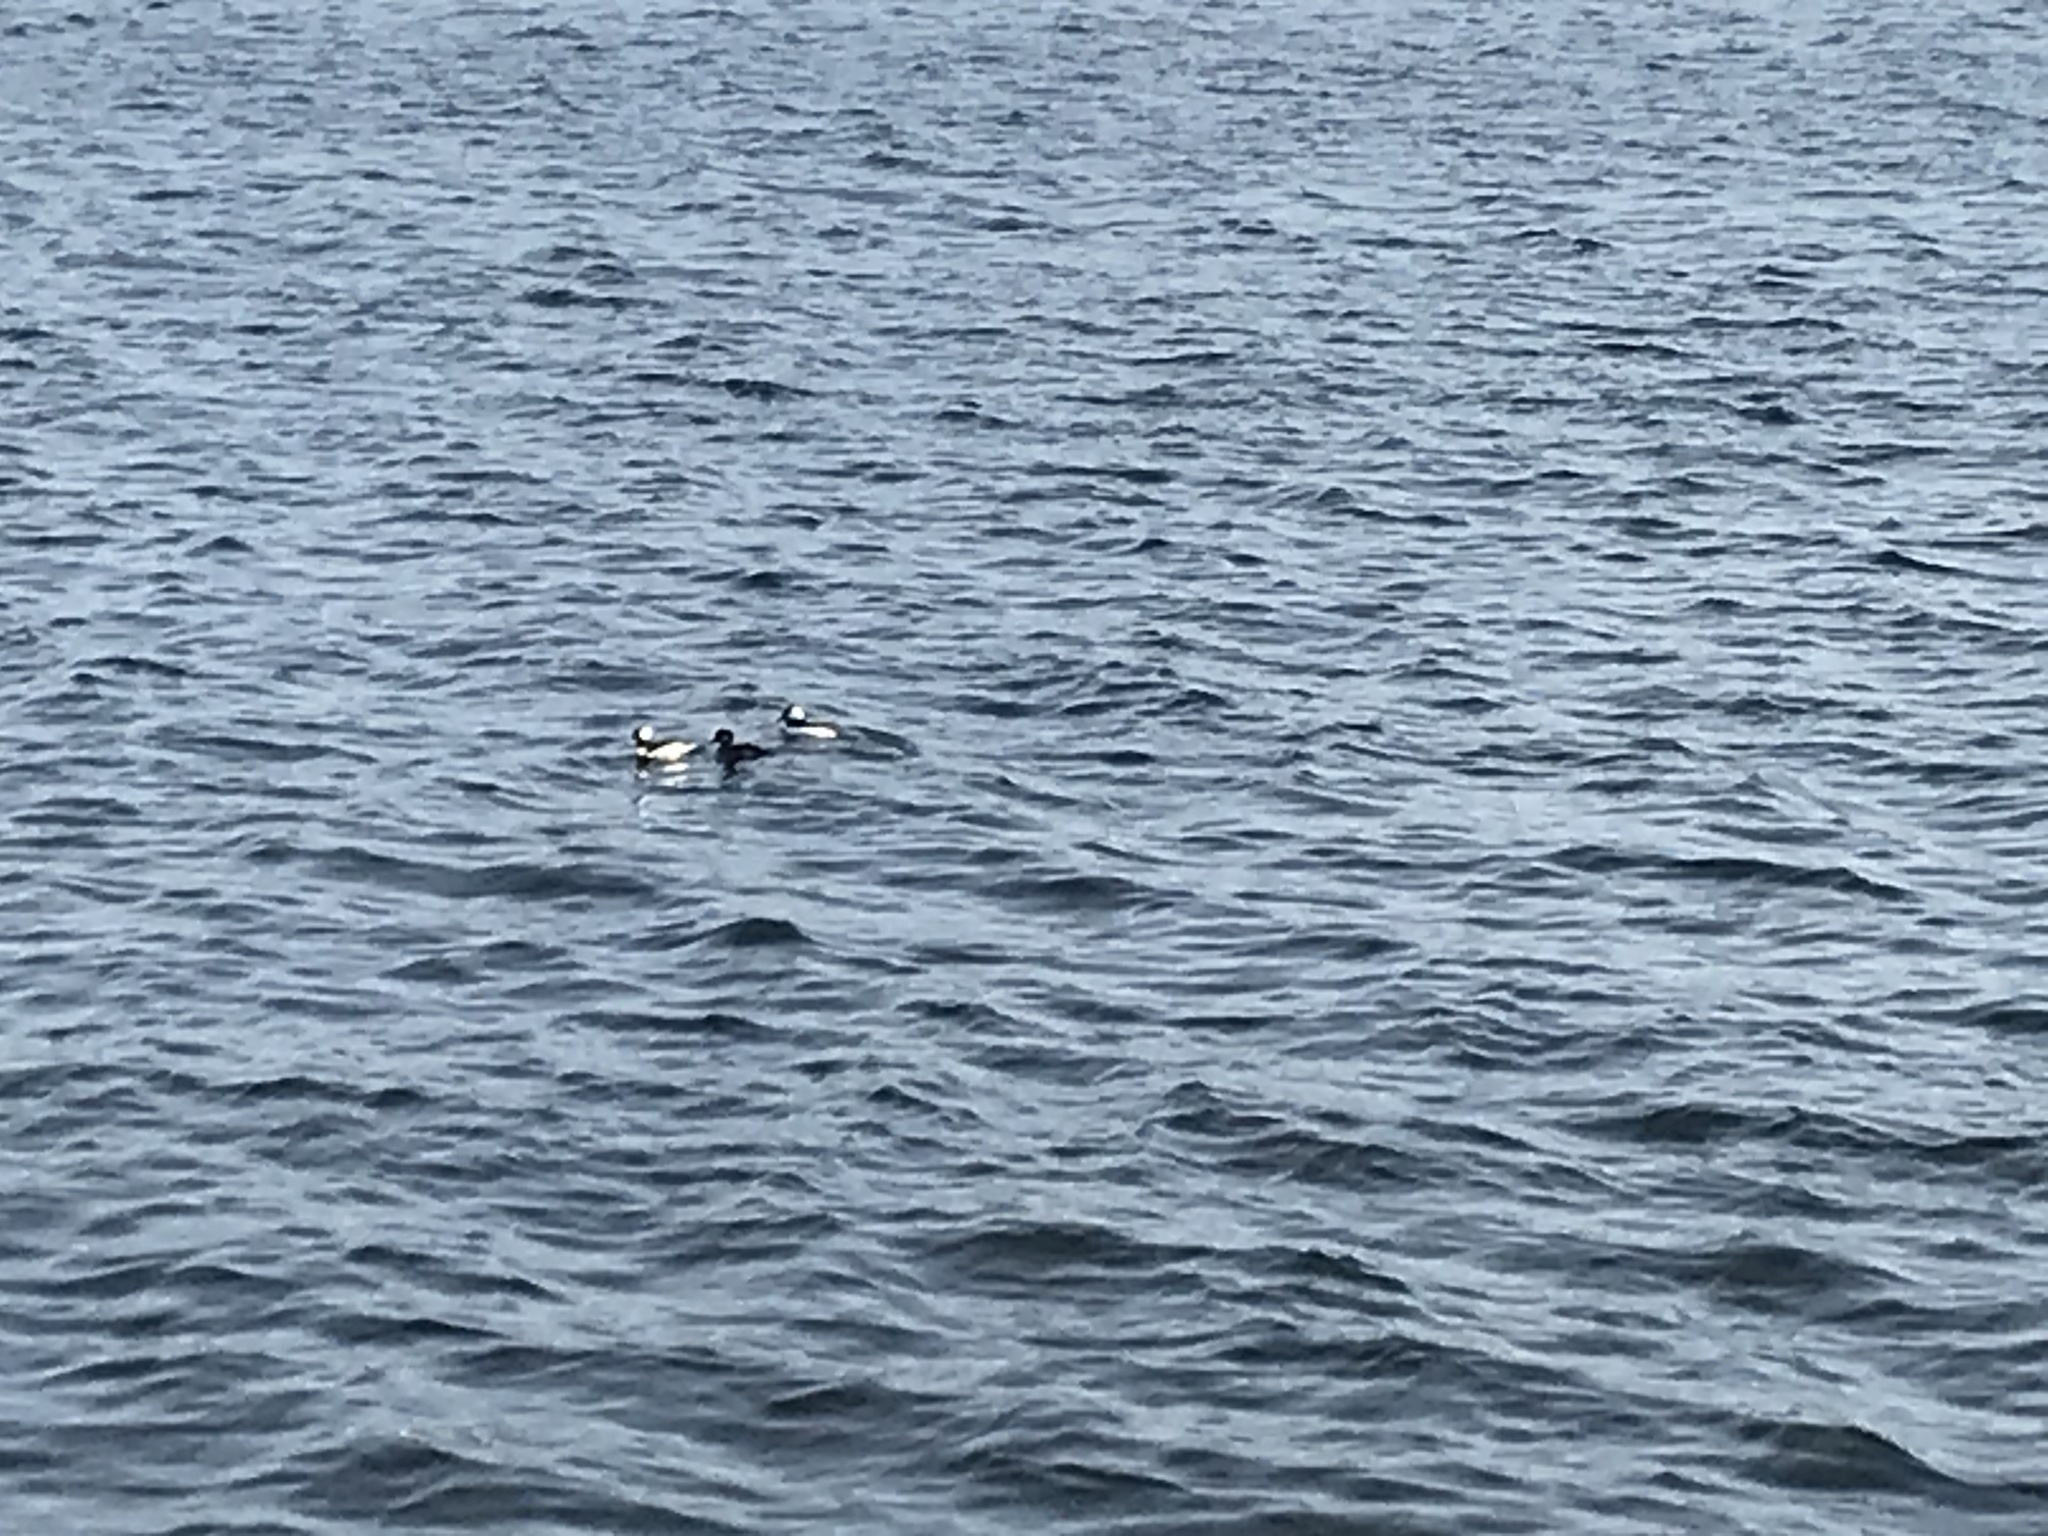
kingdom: Animalia
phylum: Chordata
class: Aves
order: Anseriformes
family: Anatidae
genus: Bucephala
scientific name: Bucephala albeola
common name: Bufflehead
